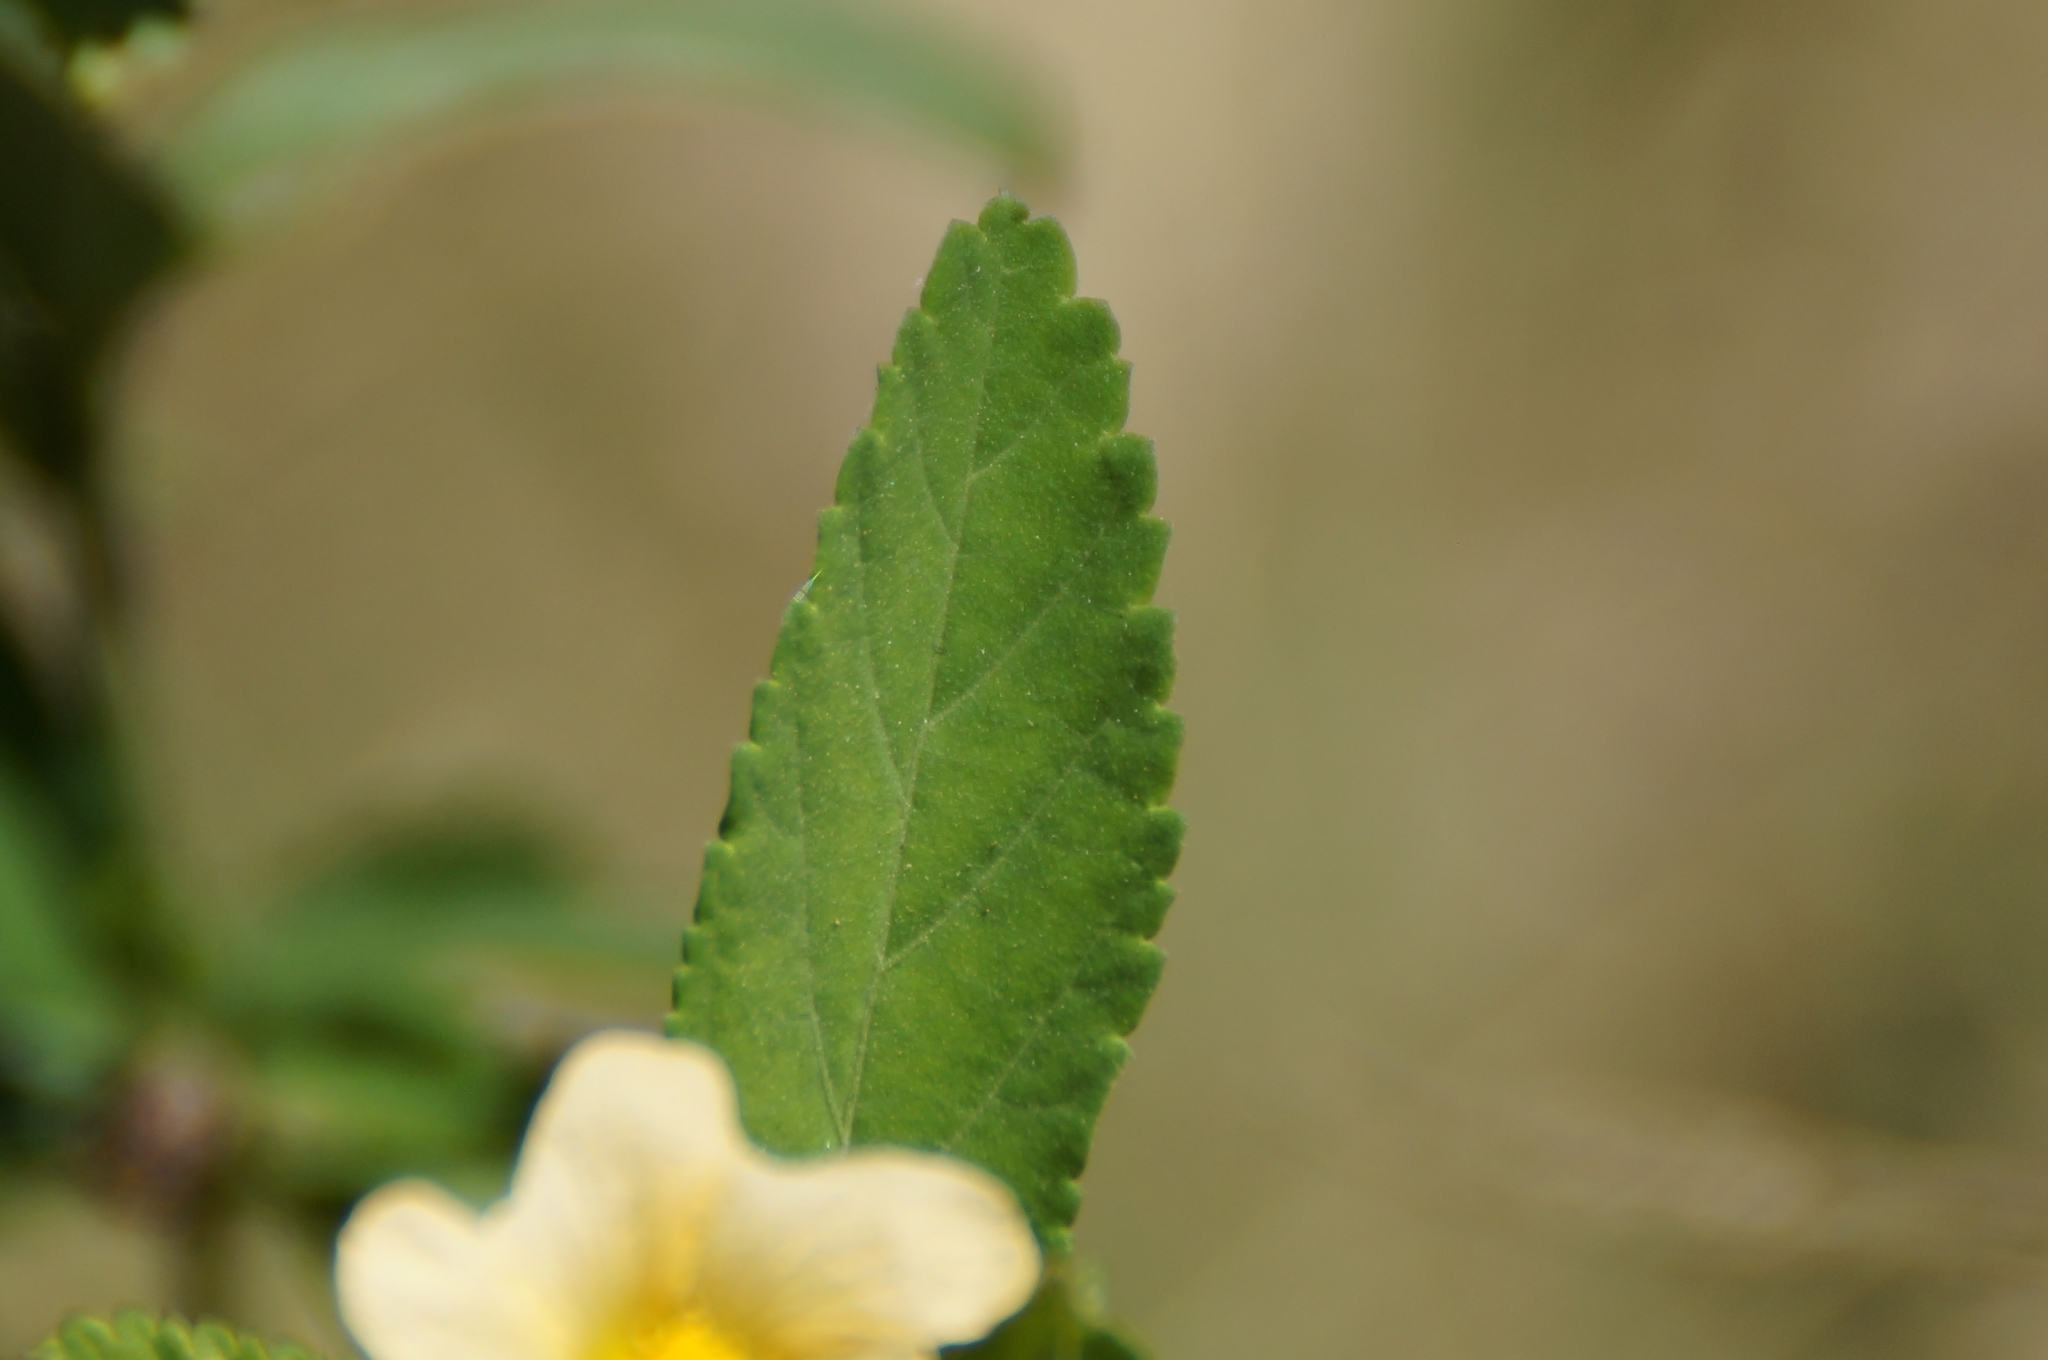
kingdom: Plantae
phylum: Tracheophyta
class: Magnoliopsida
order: Malvales
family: Malvaceae
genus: Sida
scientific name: Sida rhombifolia
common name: Queensland-hemp
